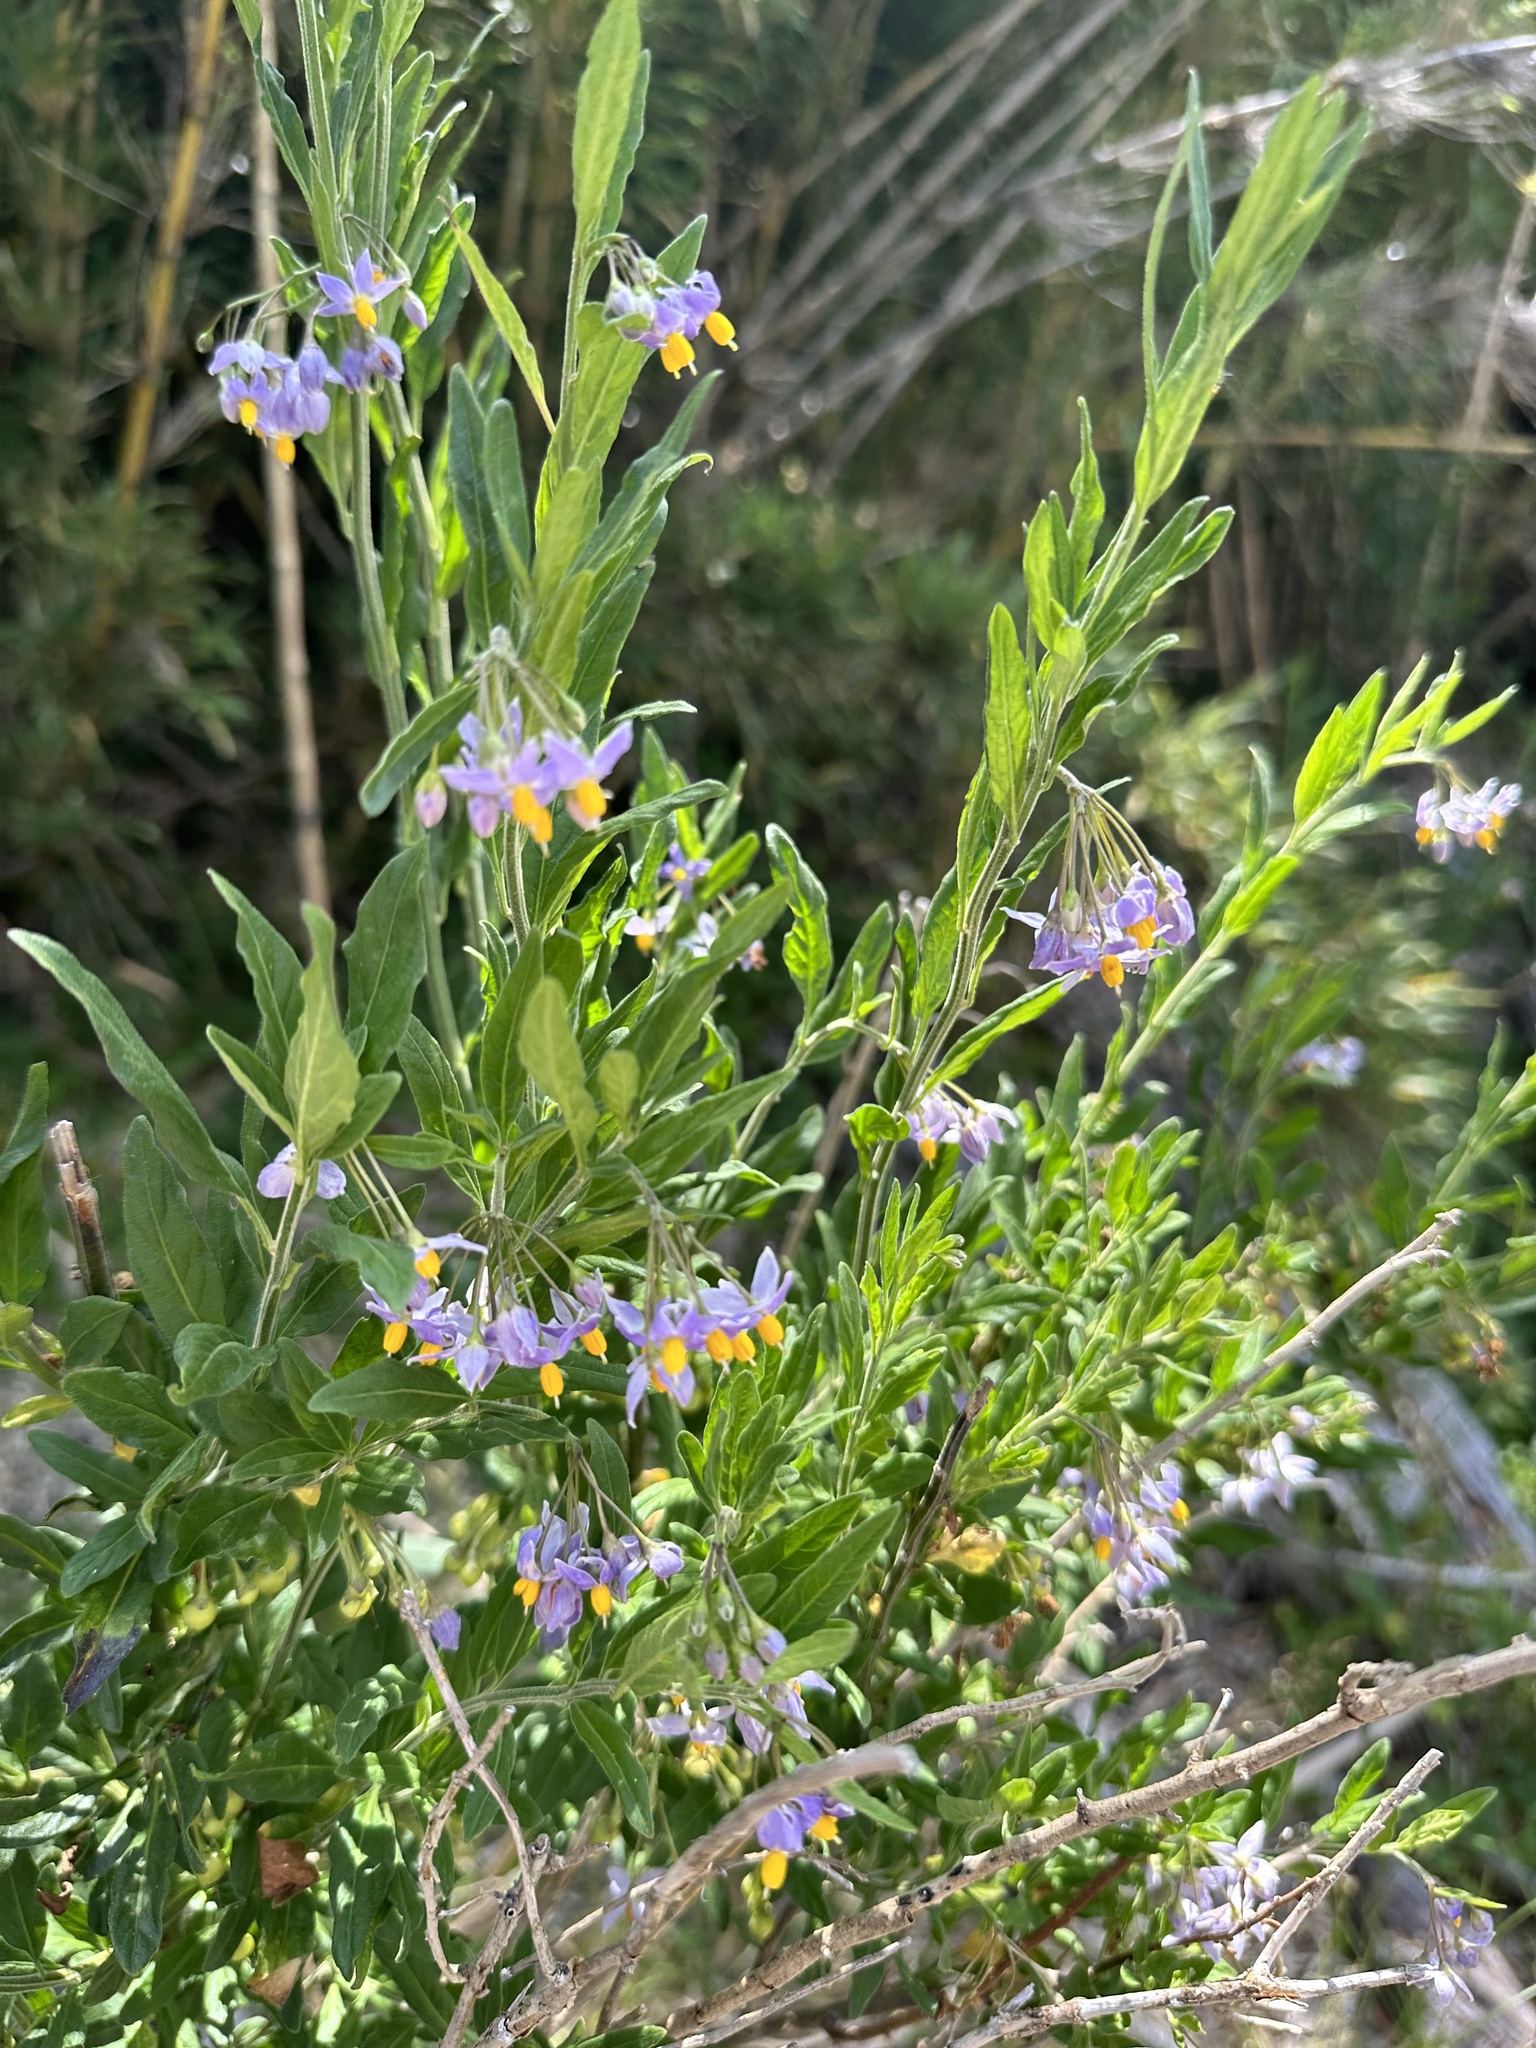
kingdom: Plantae
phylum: Tracheophyta
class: Magnoliopsida
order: Solanales
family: Solanaceae
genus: Solanum
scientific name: Solanum valdiviense
